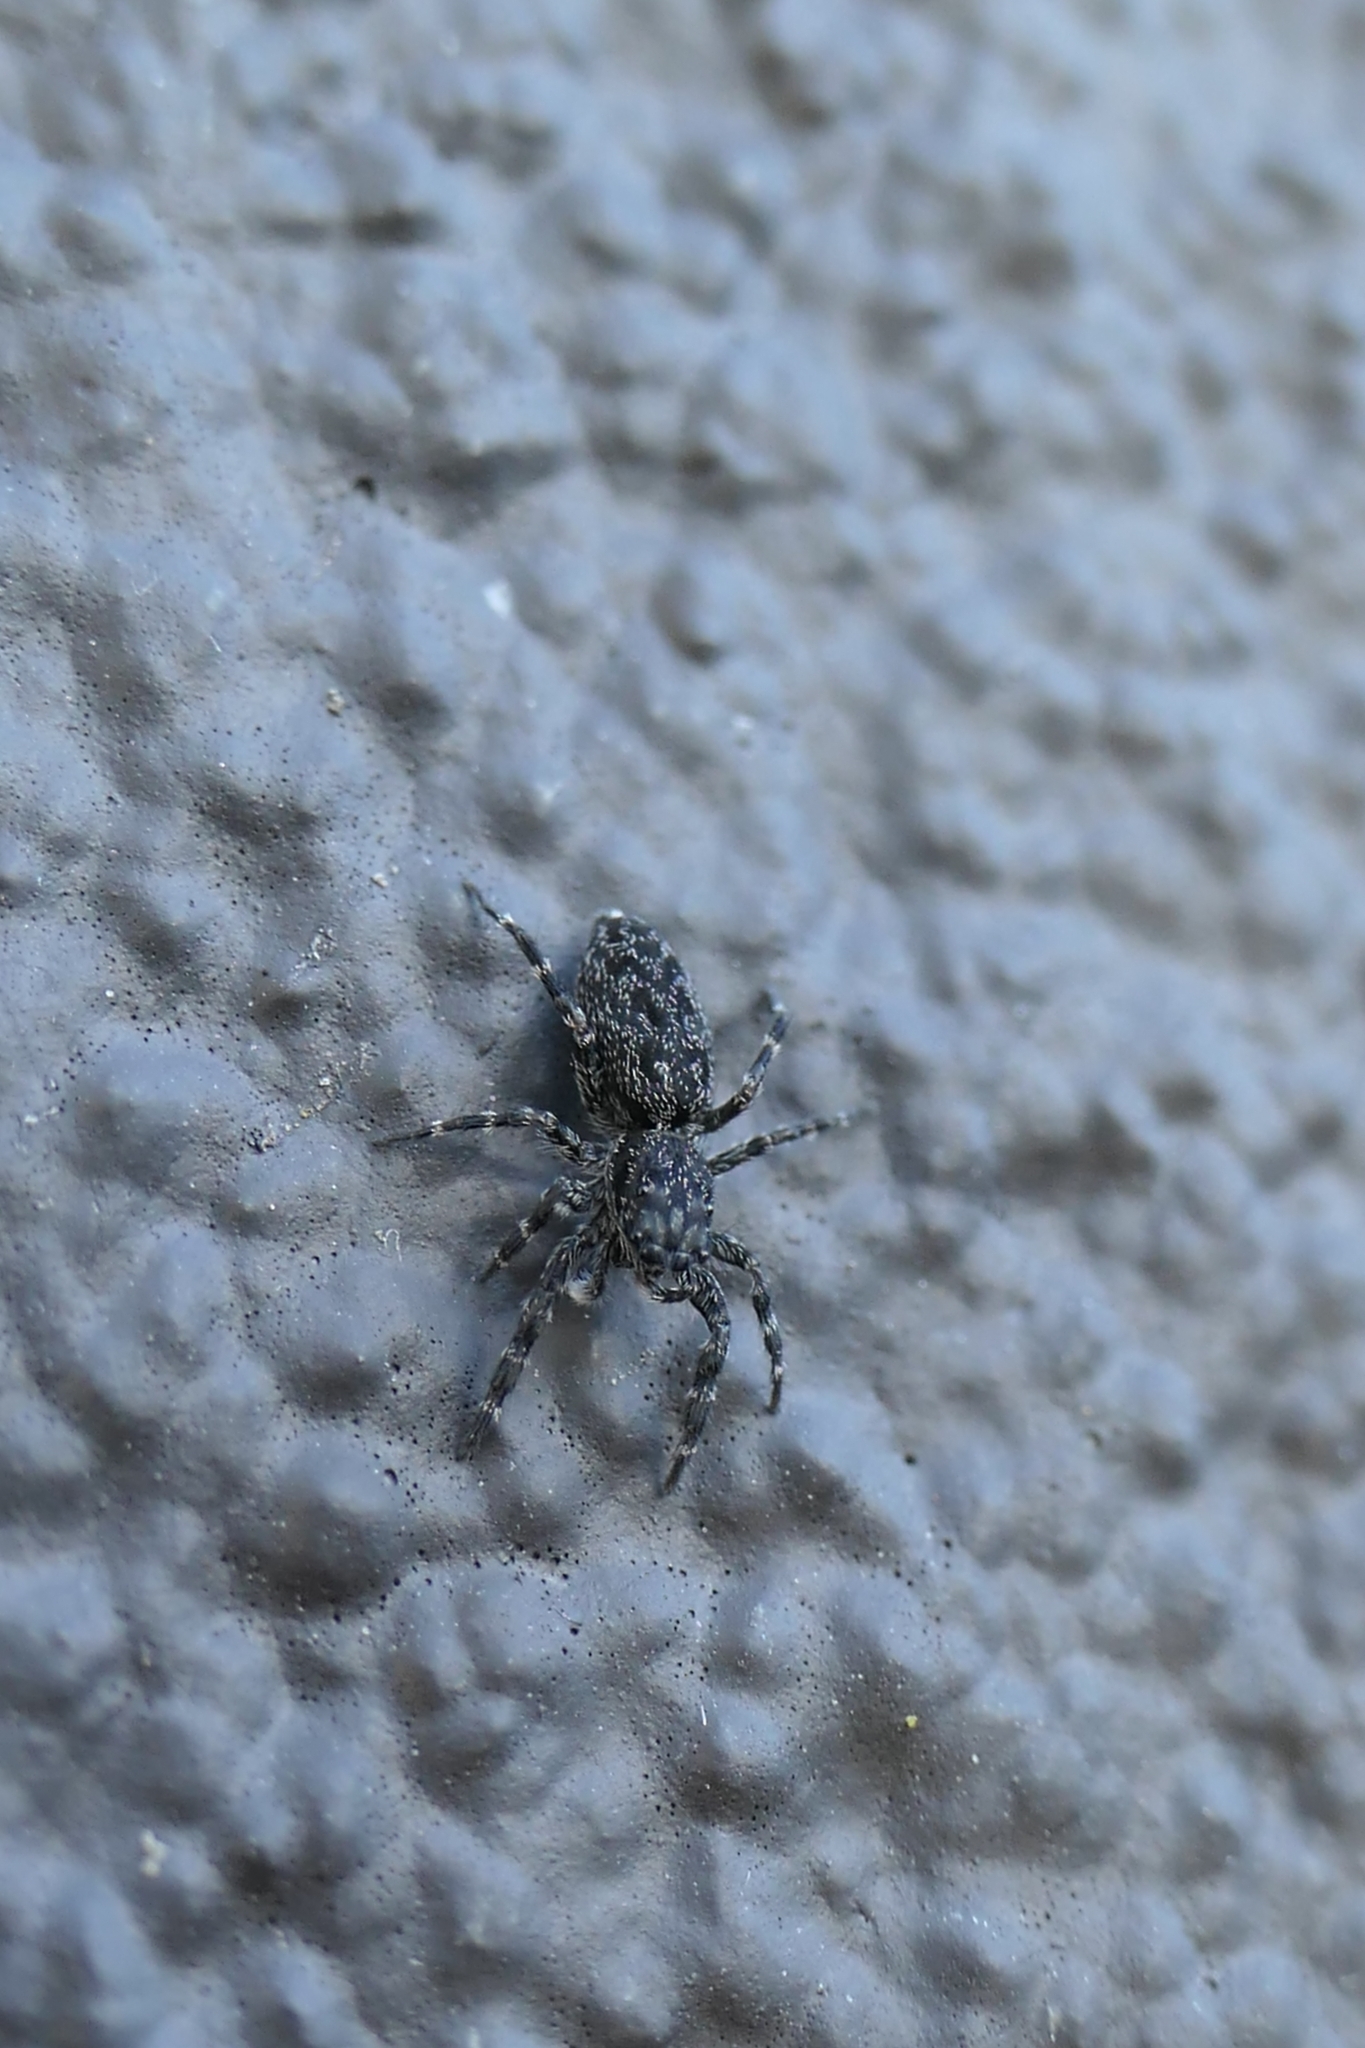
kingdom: Animalia
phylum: Arthropoda
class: Arachnida
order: Araneae
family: Salticidae
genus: Adoxotoma
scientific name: Adoxotoma forsteri
